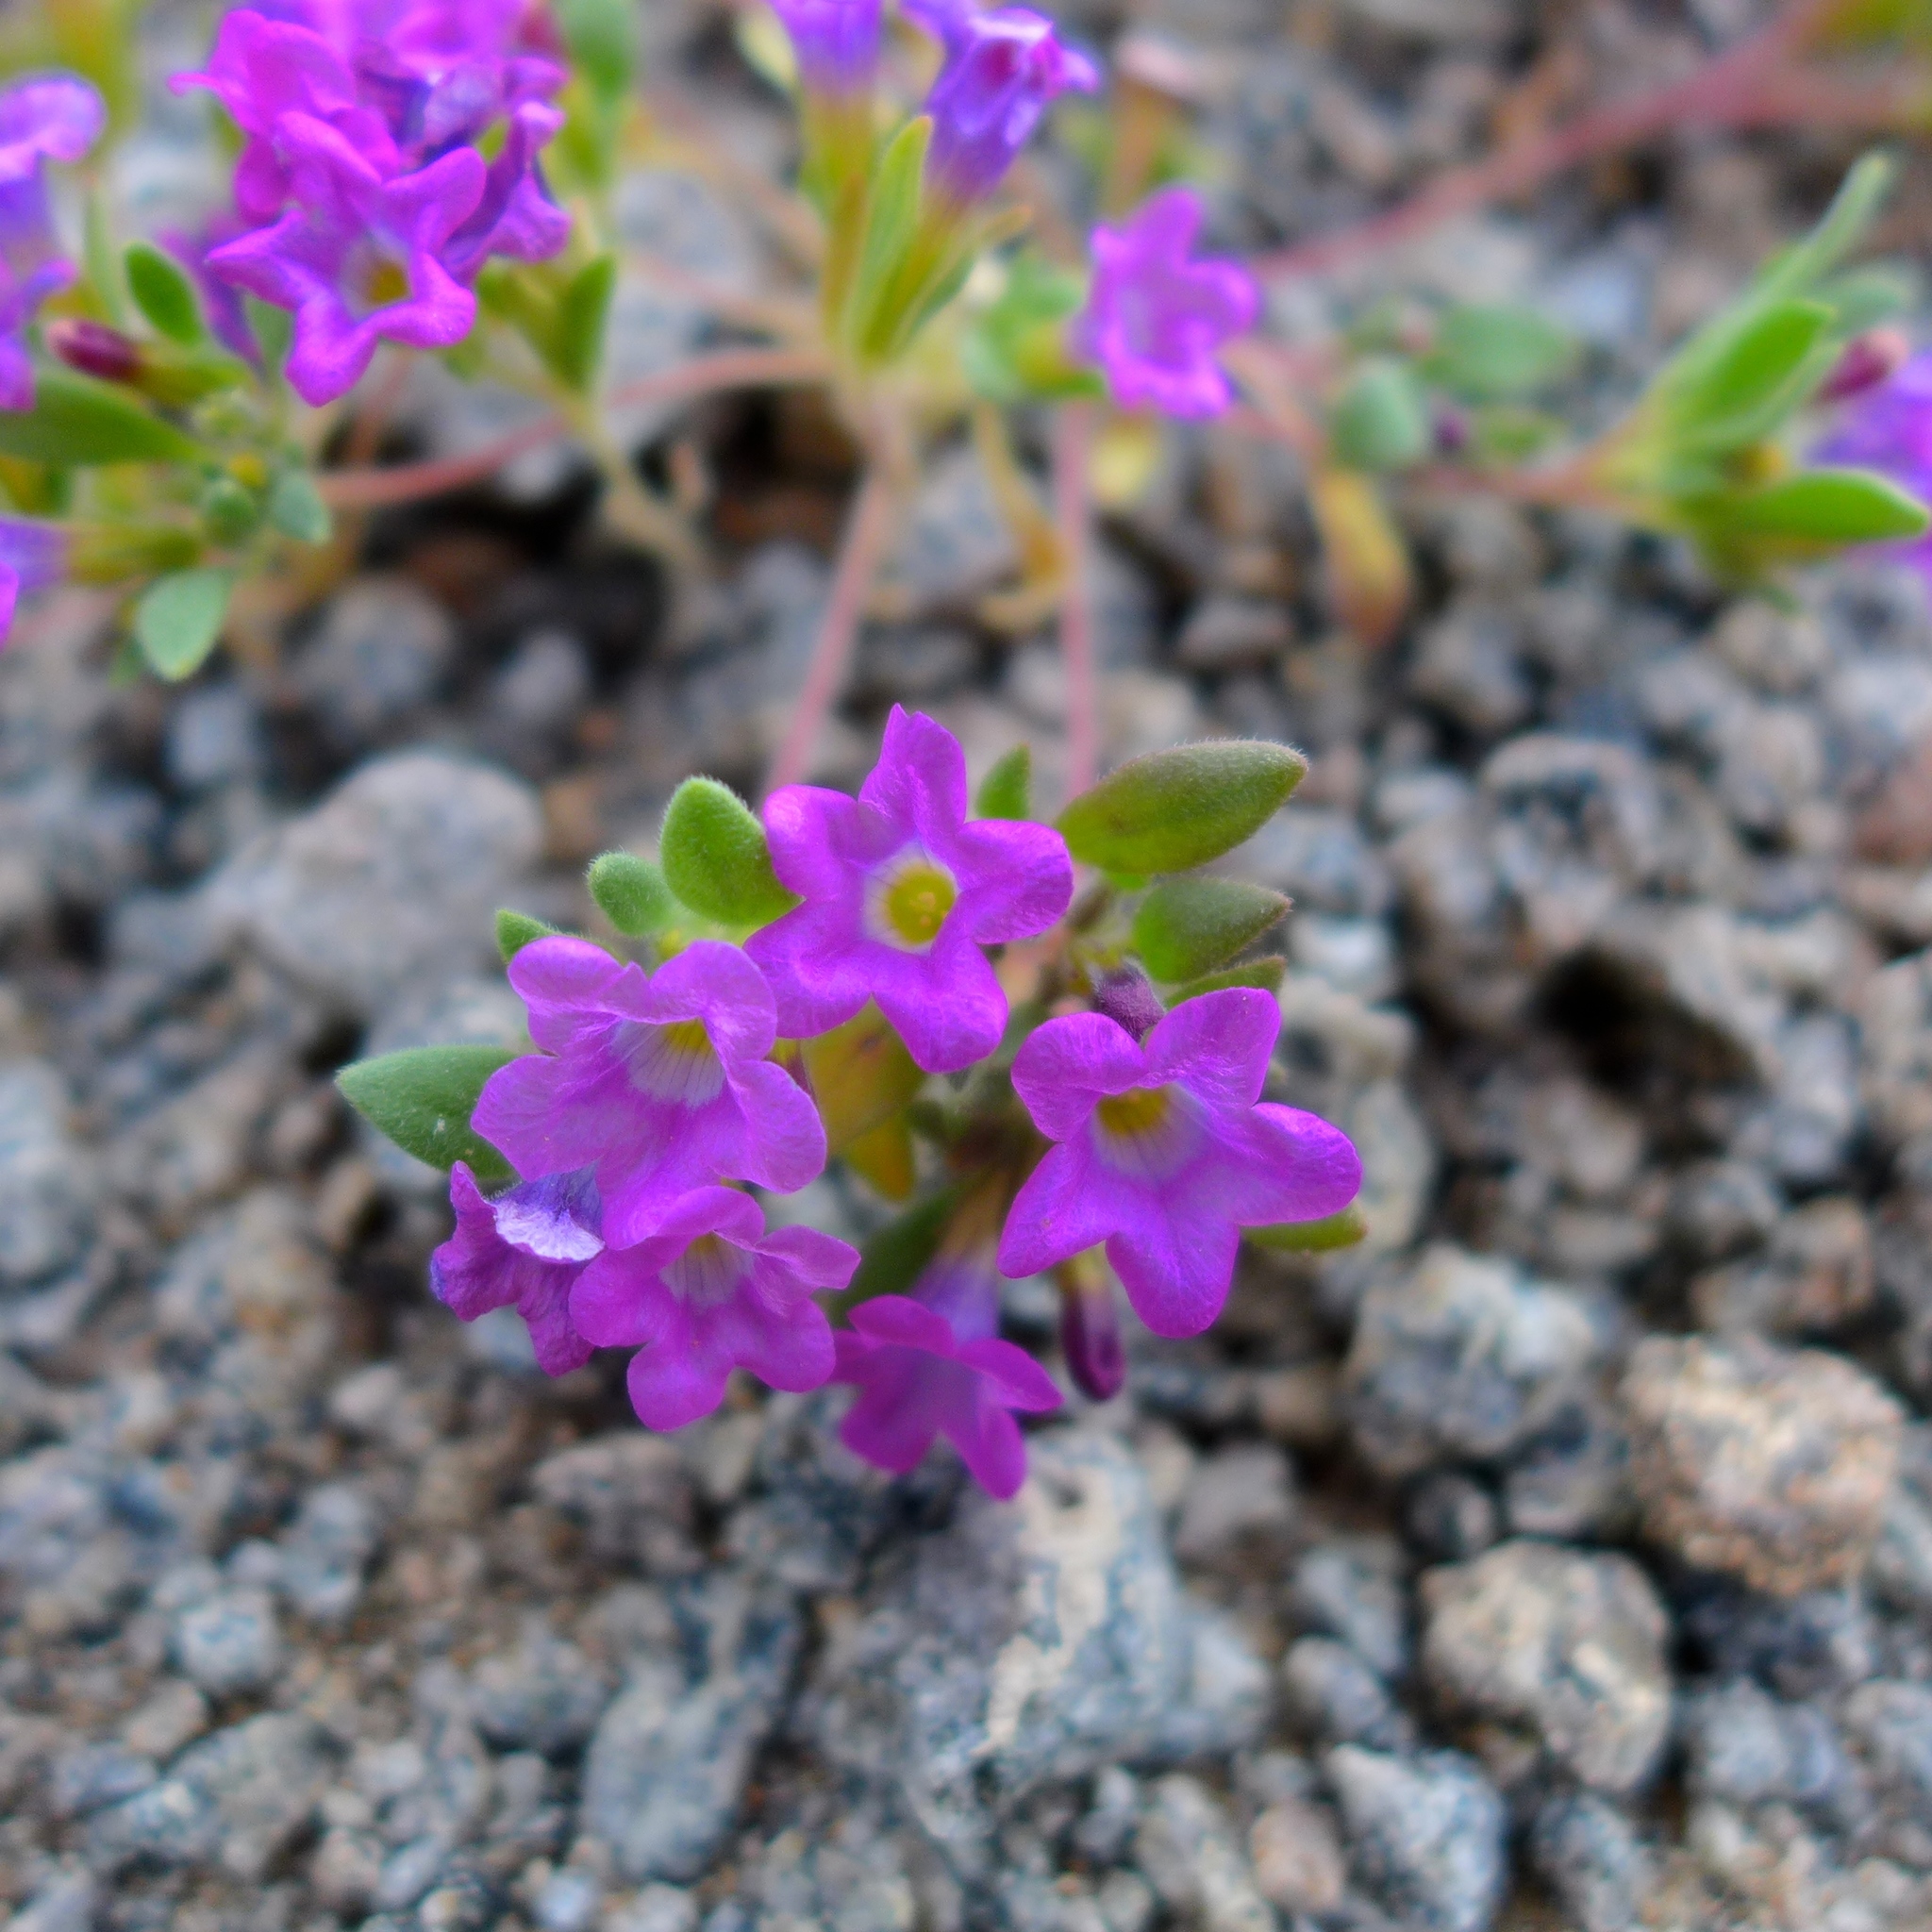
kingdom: Plantae
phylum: Tracheophyta
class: Magnoliopsida
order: Boraginales
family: Namaceae
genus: Nama
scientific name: Nama demissa
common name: Leafy nama
